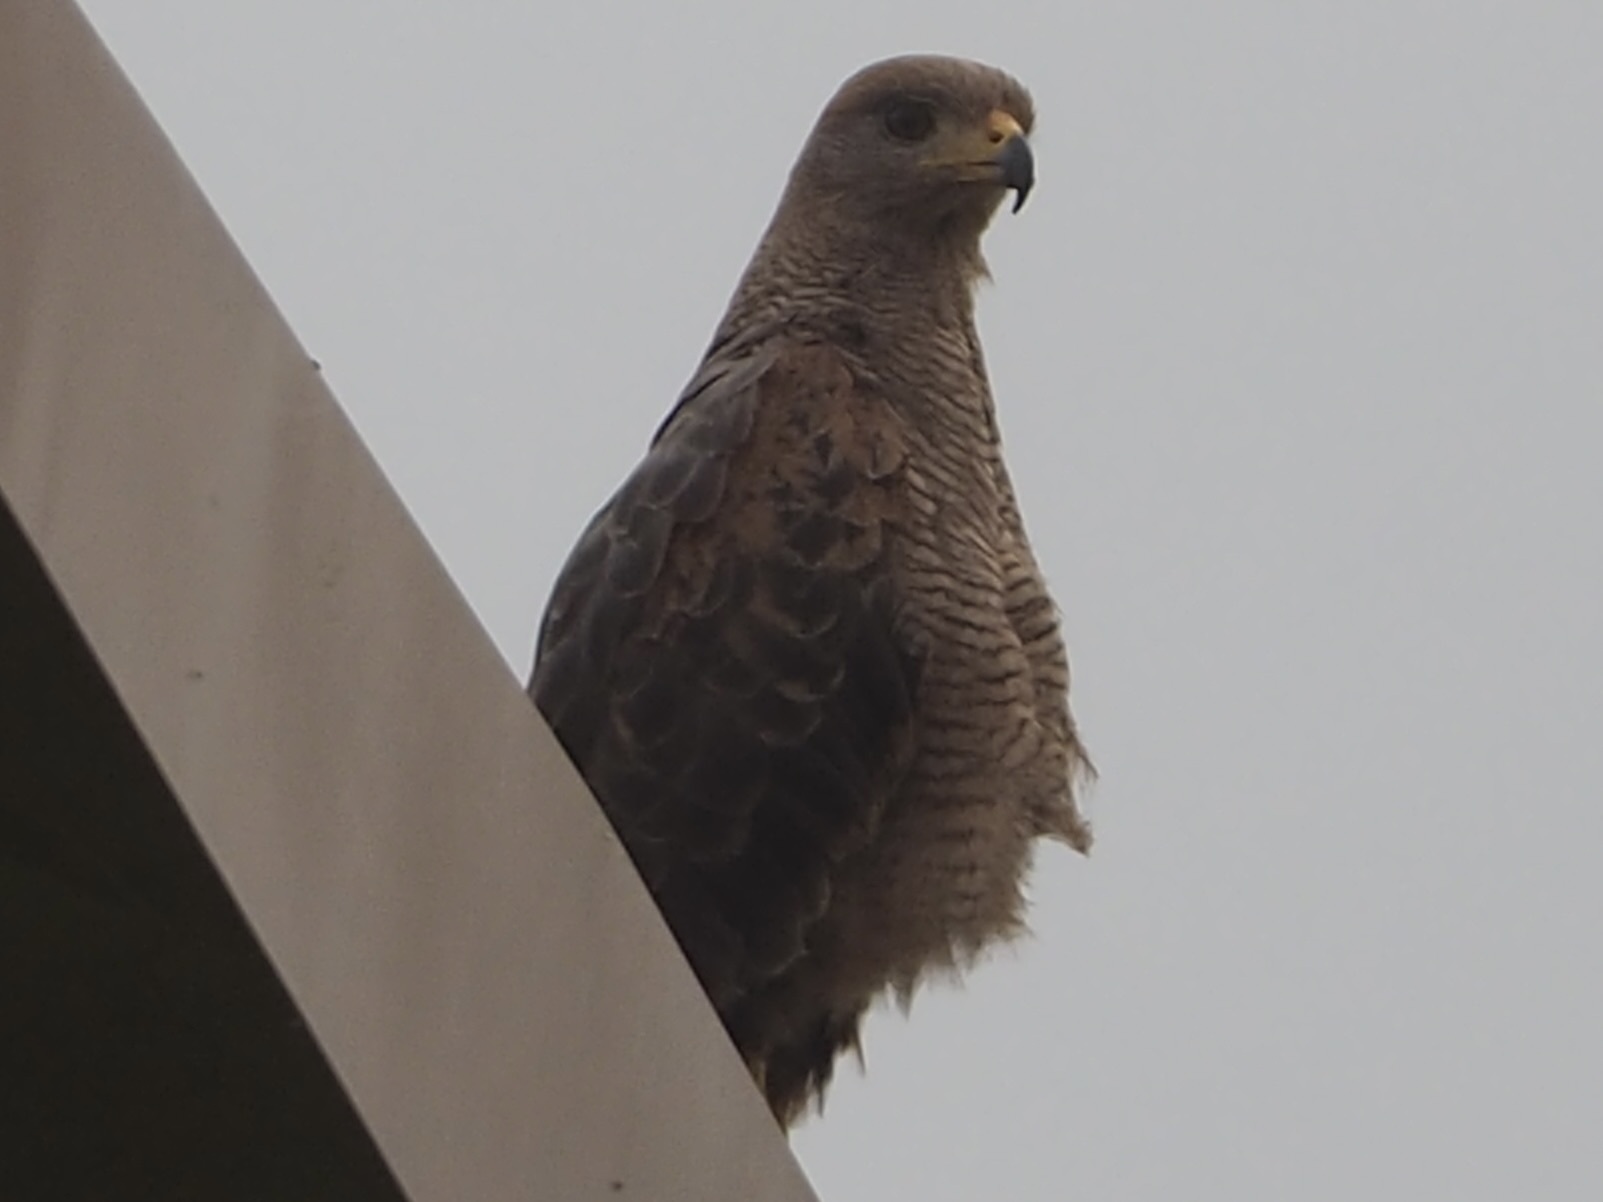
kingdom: Animalia
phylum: Chordata
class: Aves
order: Accipitriformes
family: Accipitridae
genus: Buteogallus
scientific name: Buteogallus meridionalis
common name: Savanna hawk
